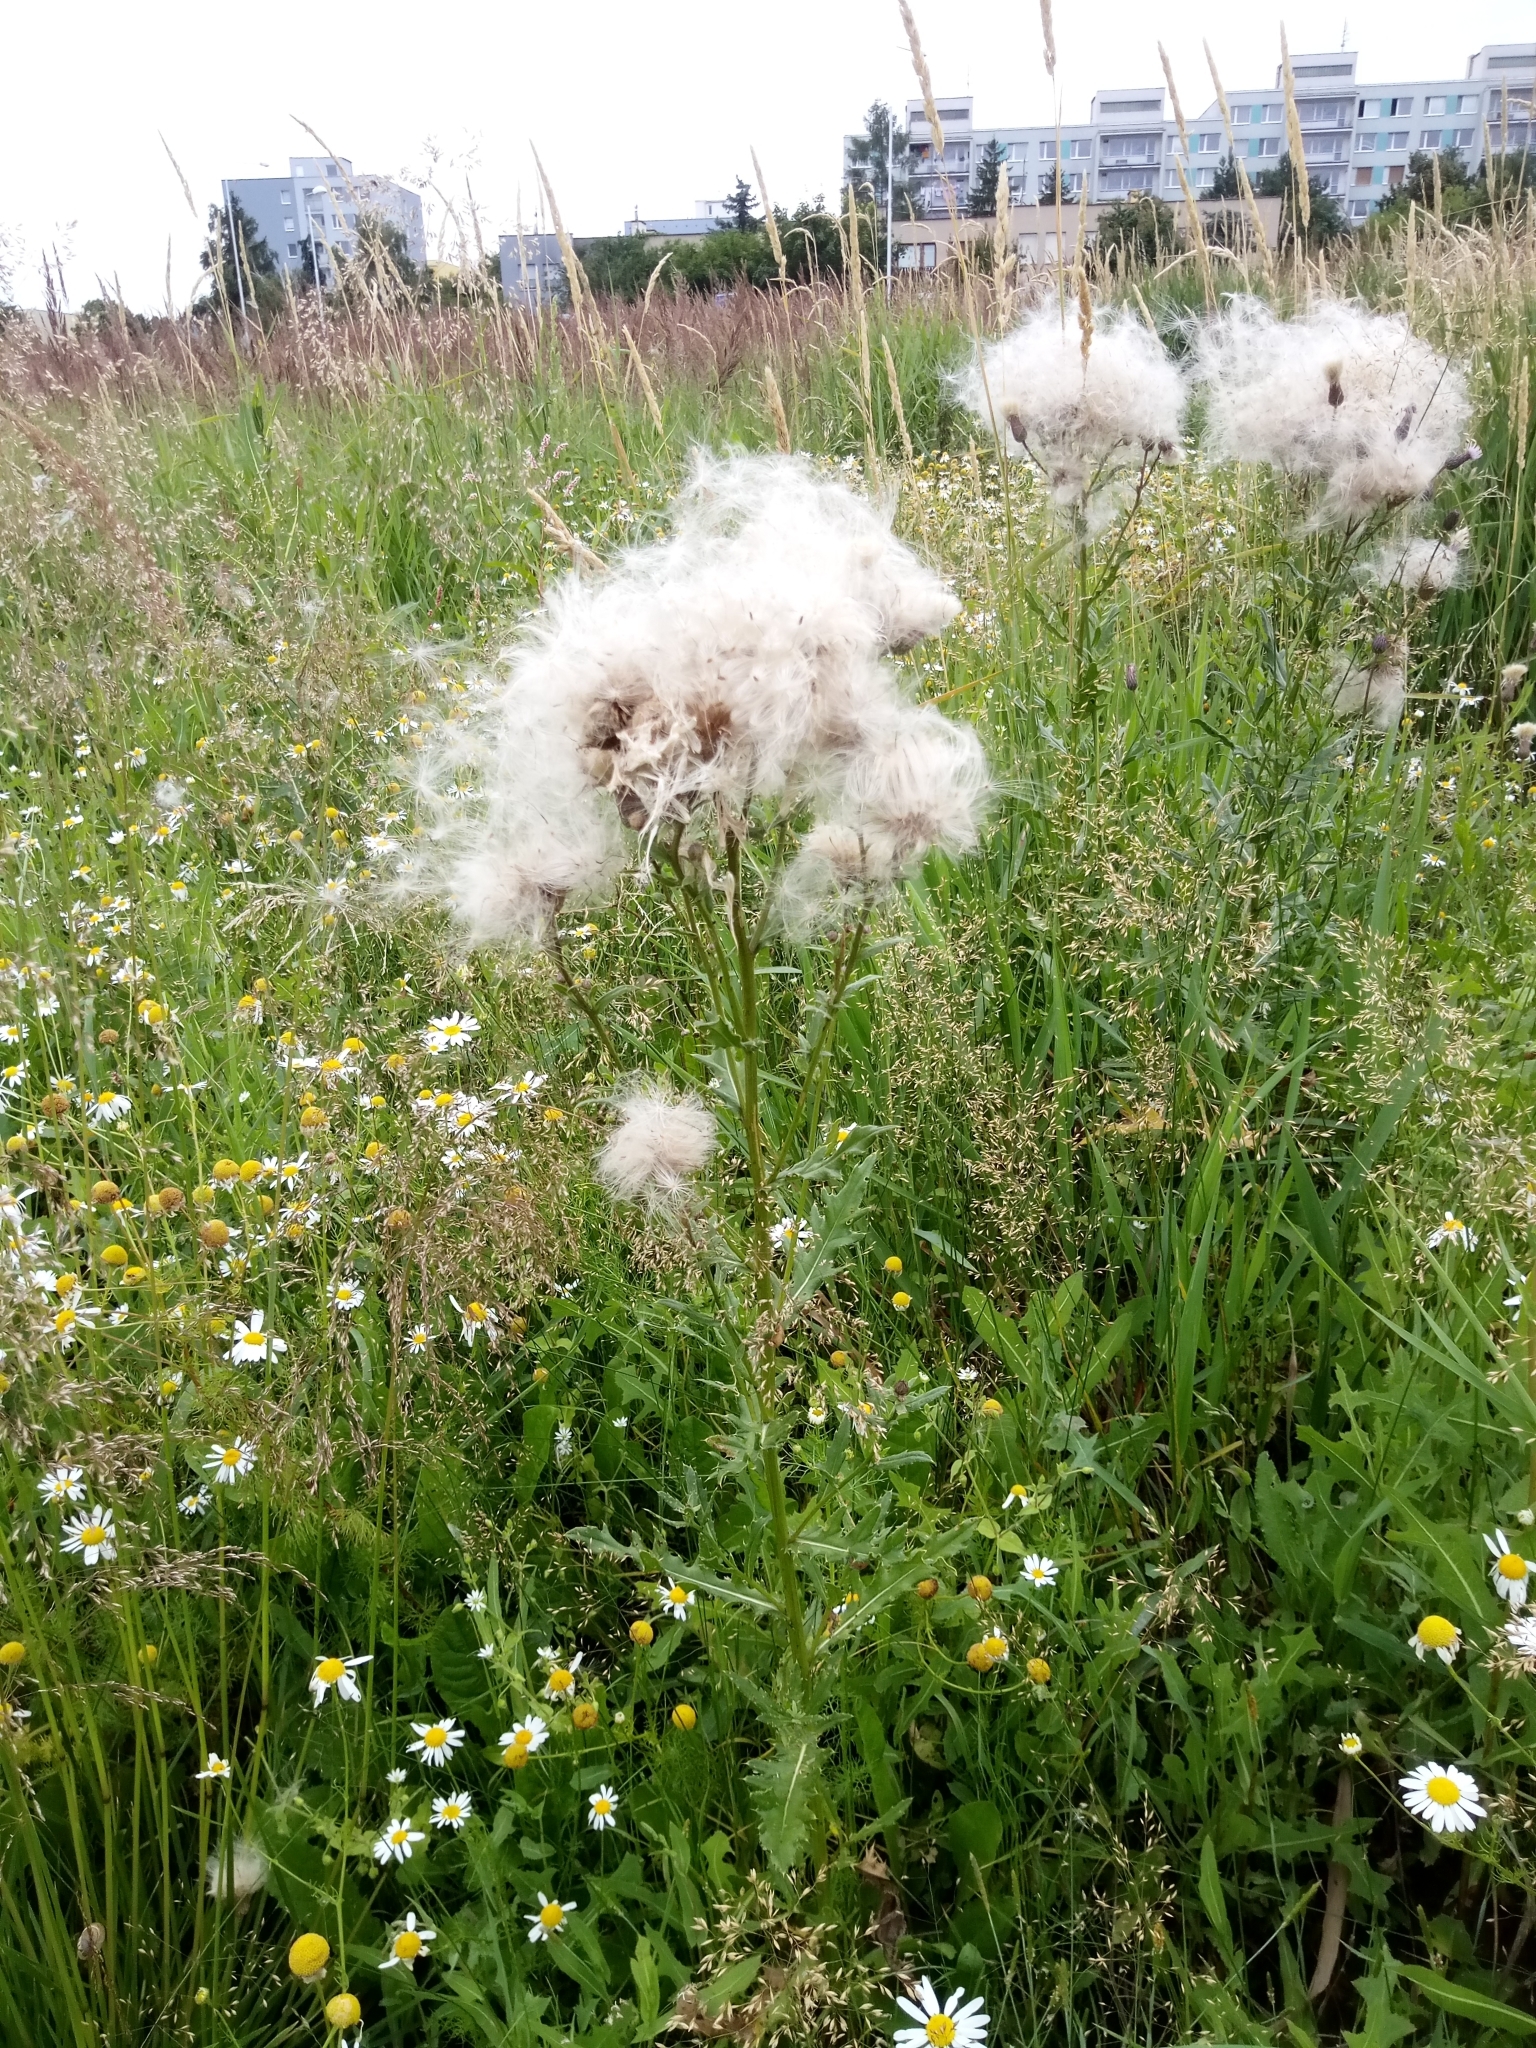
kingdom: Plantae
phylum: Tracheophyta
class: Magnoliopsida
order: Asterales
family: Asteraceae
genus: Cirsium
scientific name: Cirsium arvense
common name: Creeping thistle
